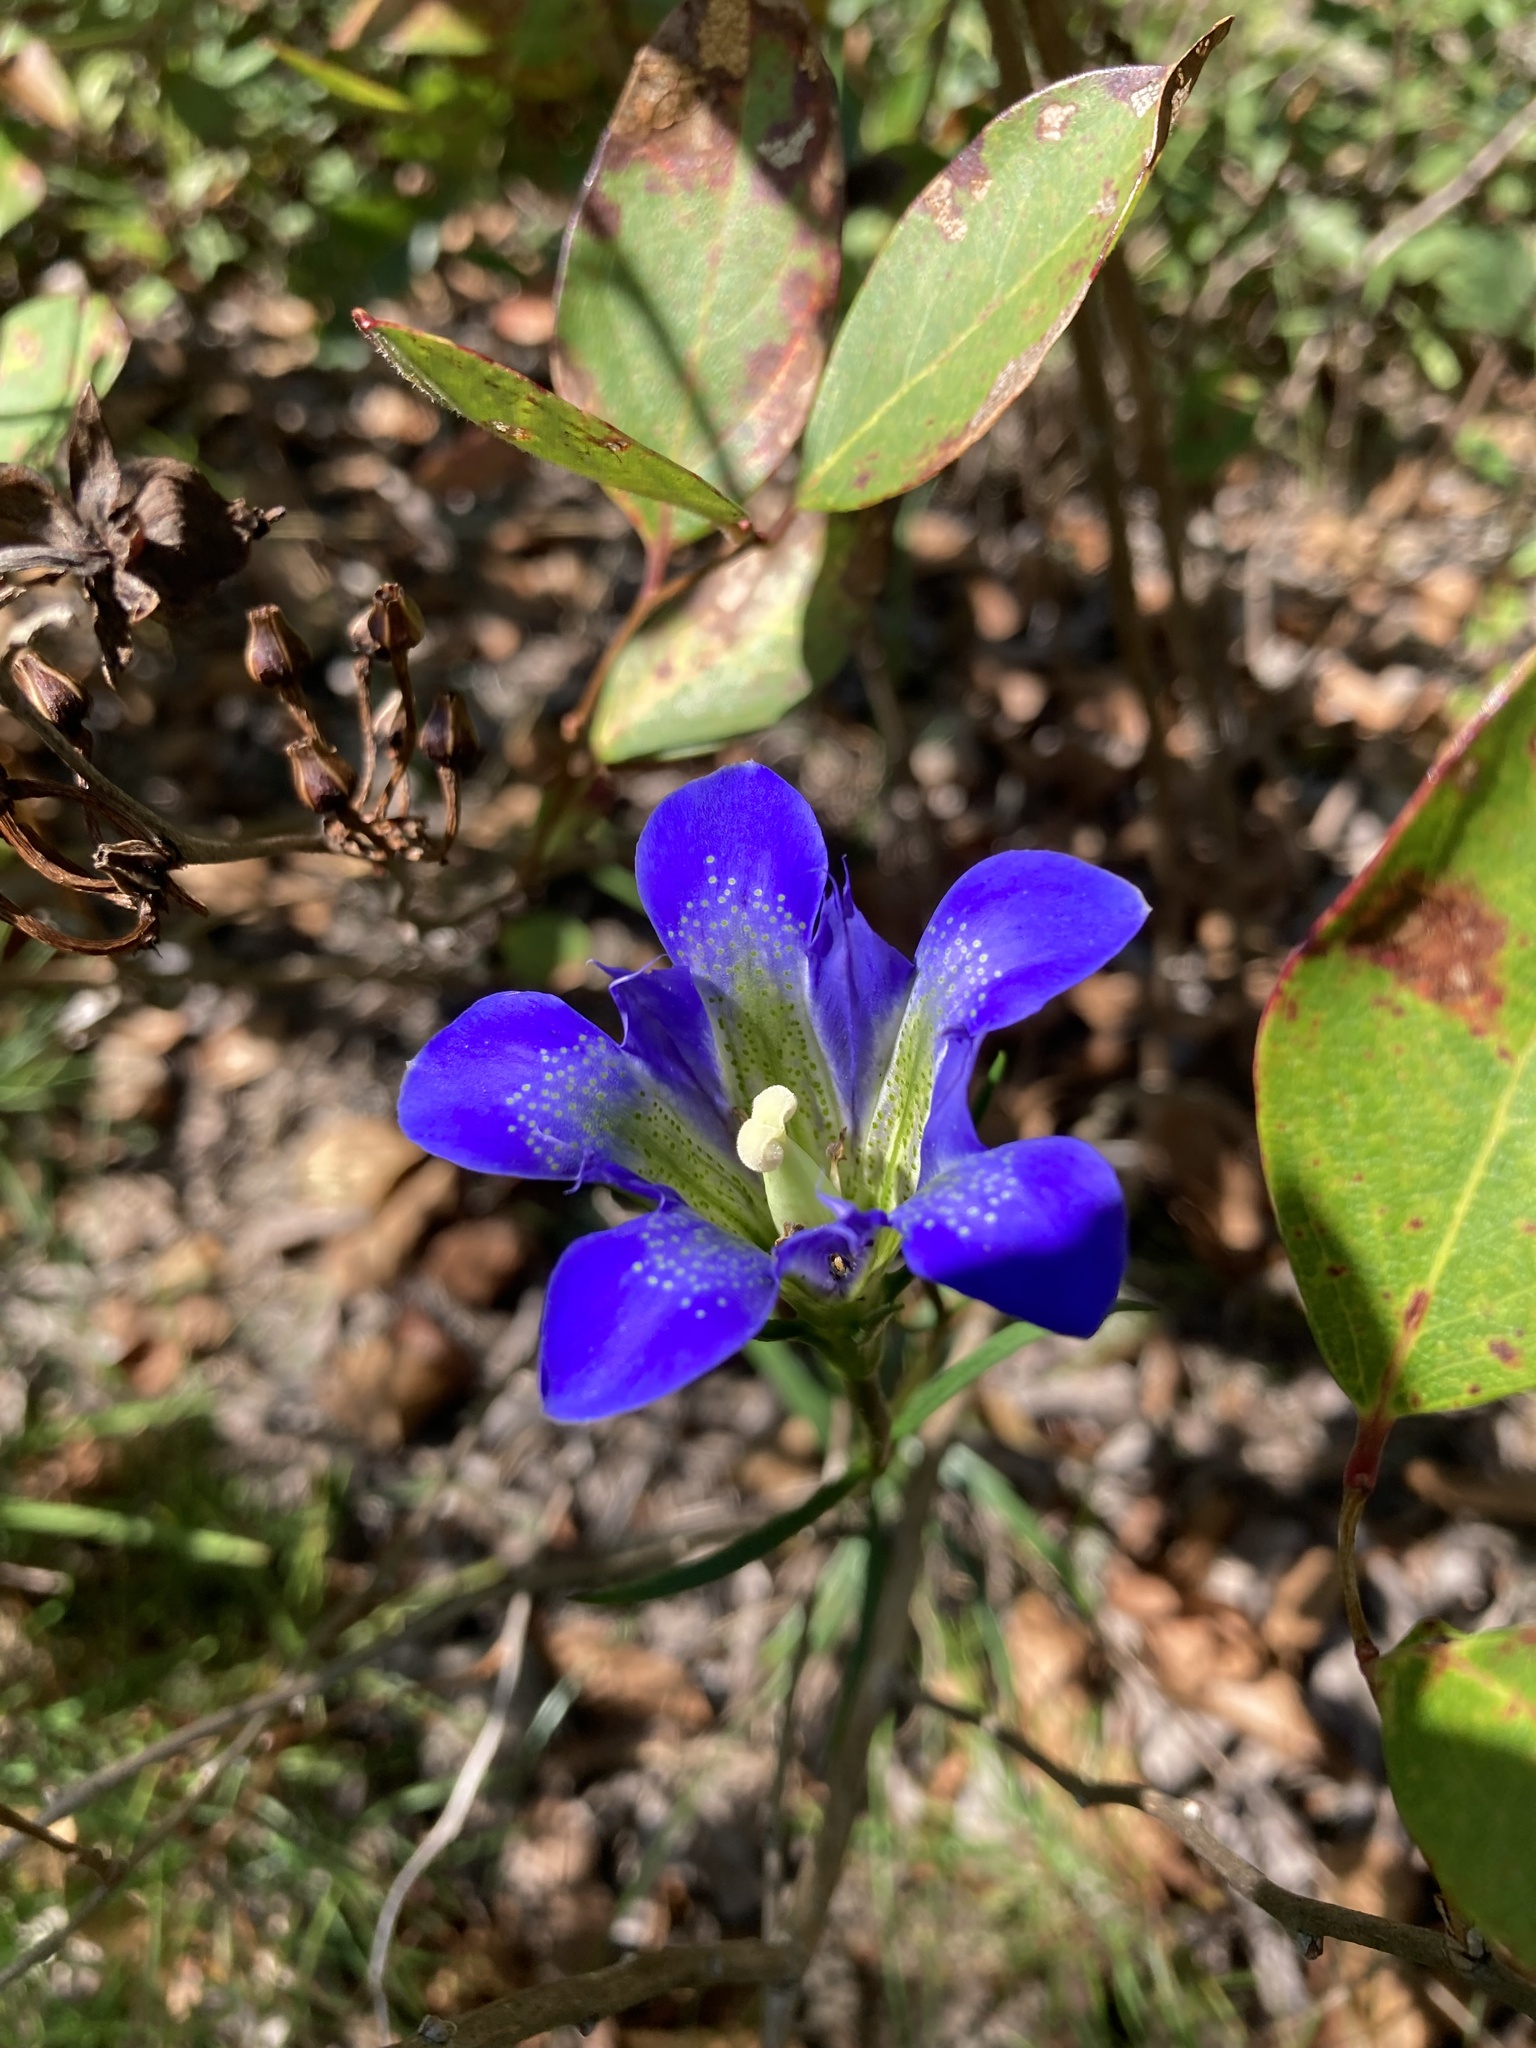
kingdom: Plantae
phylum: Tracheophyta
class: Magnoliopsida
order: Gentianales
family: Gentianaceae
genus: Gentiana
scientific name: Gentiana autumnalis
